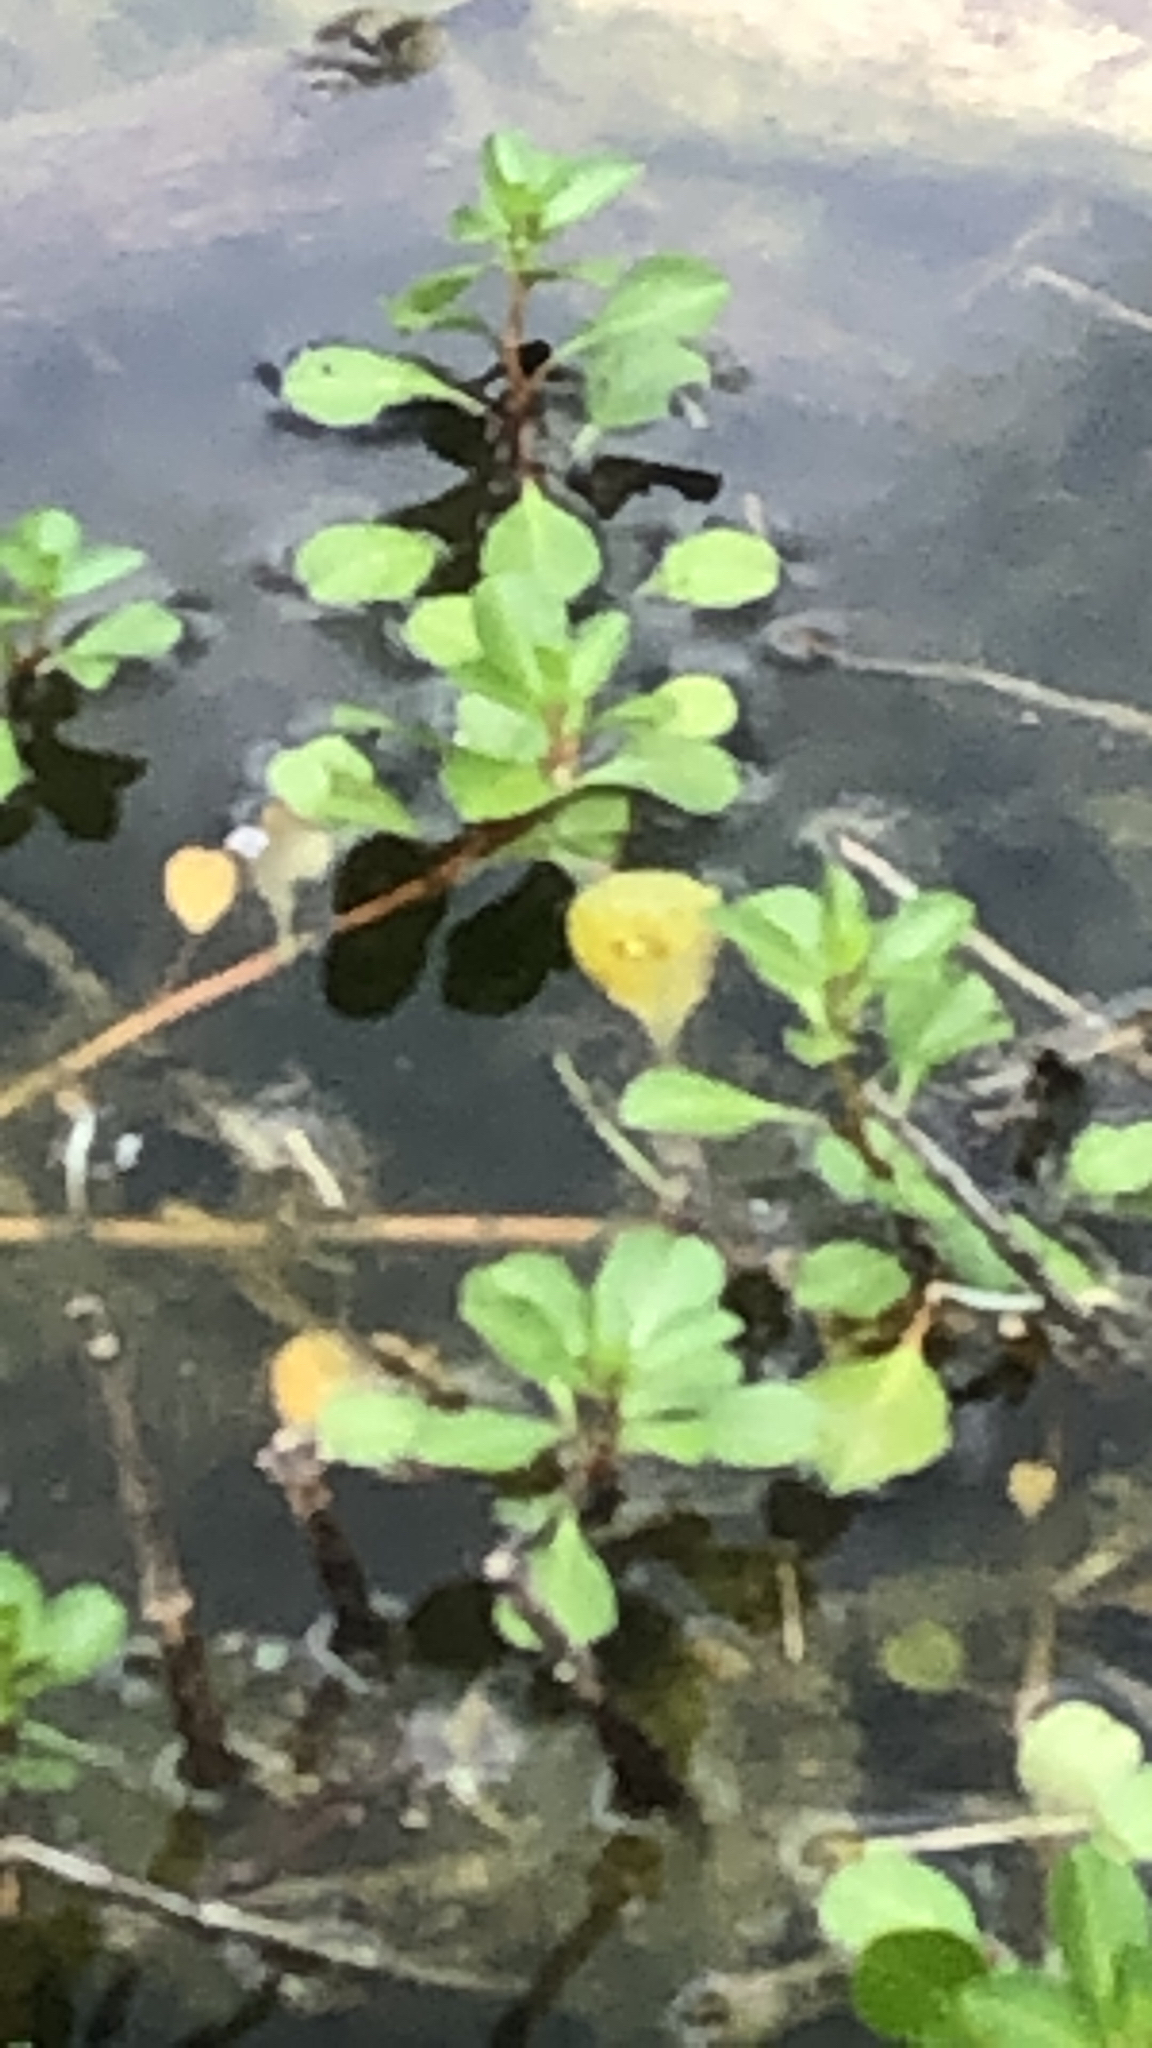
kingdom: Plantae
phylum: Tracheophyta
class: Magnoliopsida
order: Myrtales
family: Onagraceae
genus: Ludwigia
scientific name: Ludwigia peploides
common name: Floating primrose-willow
